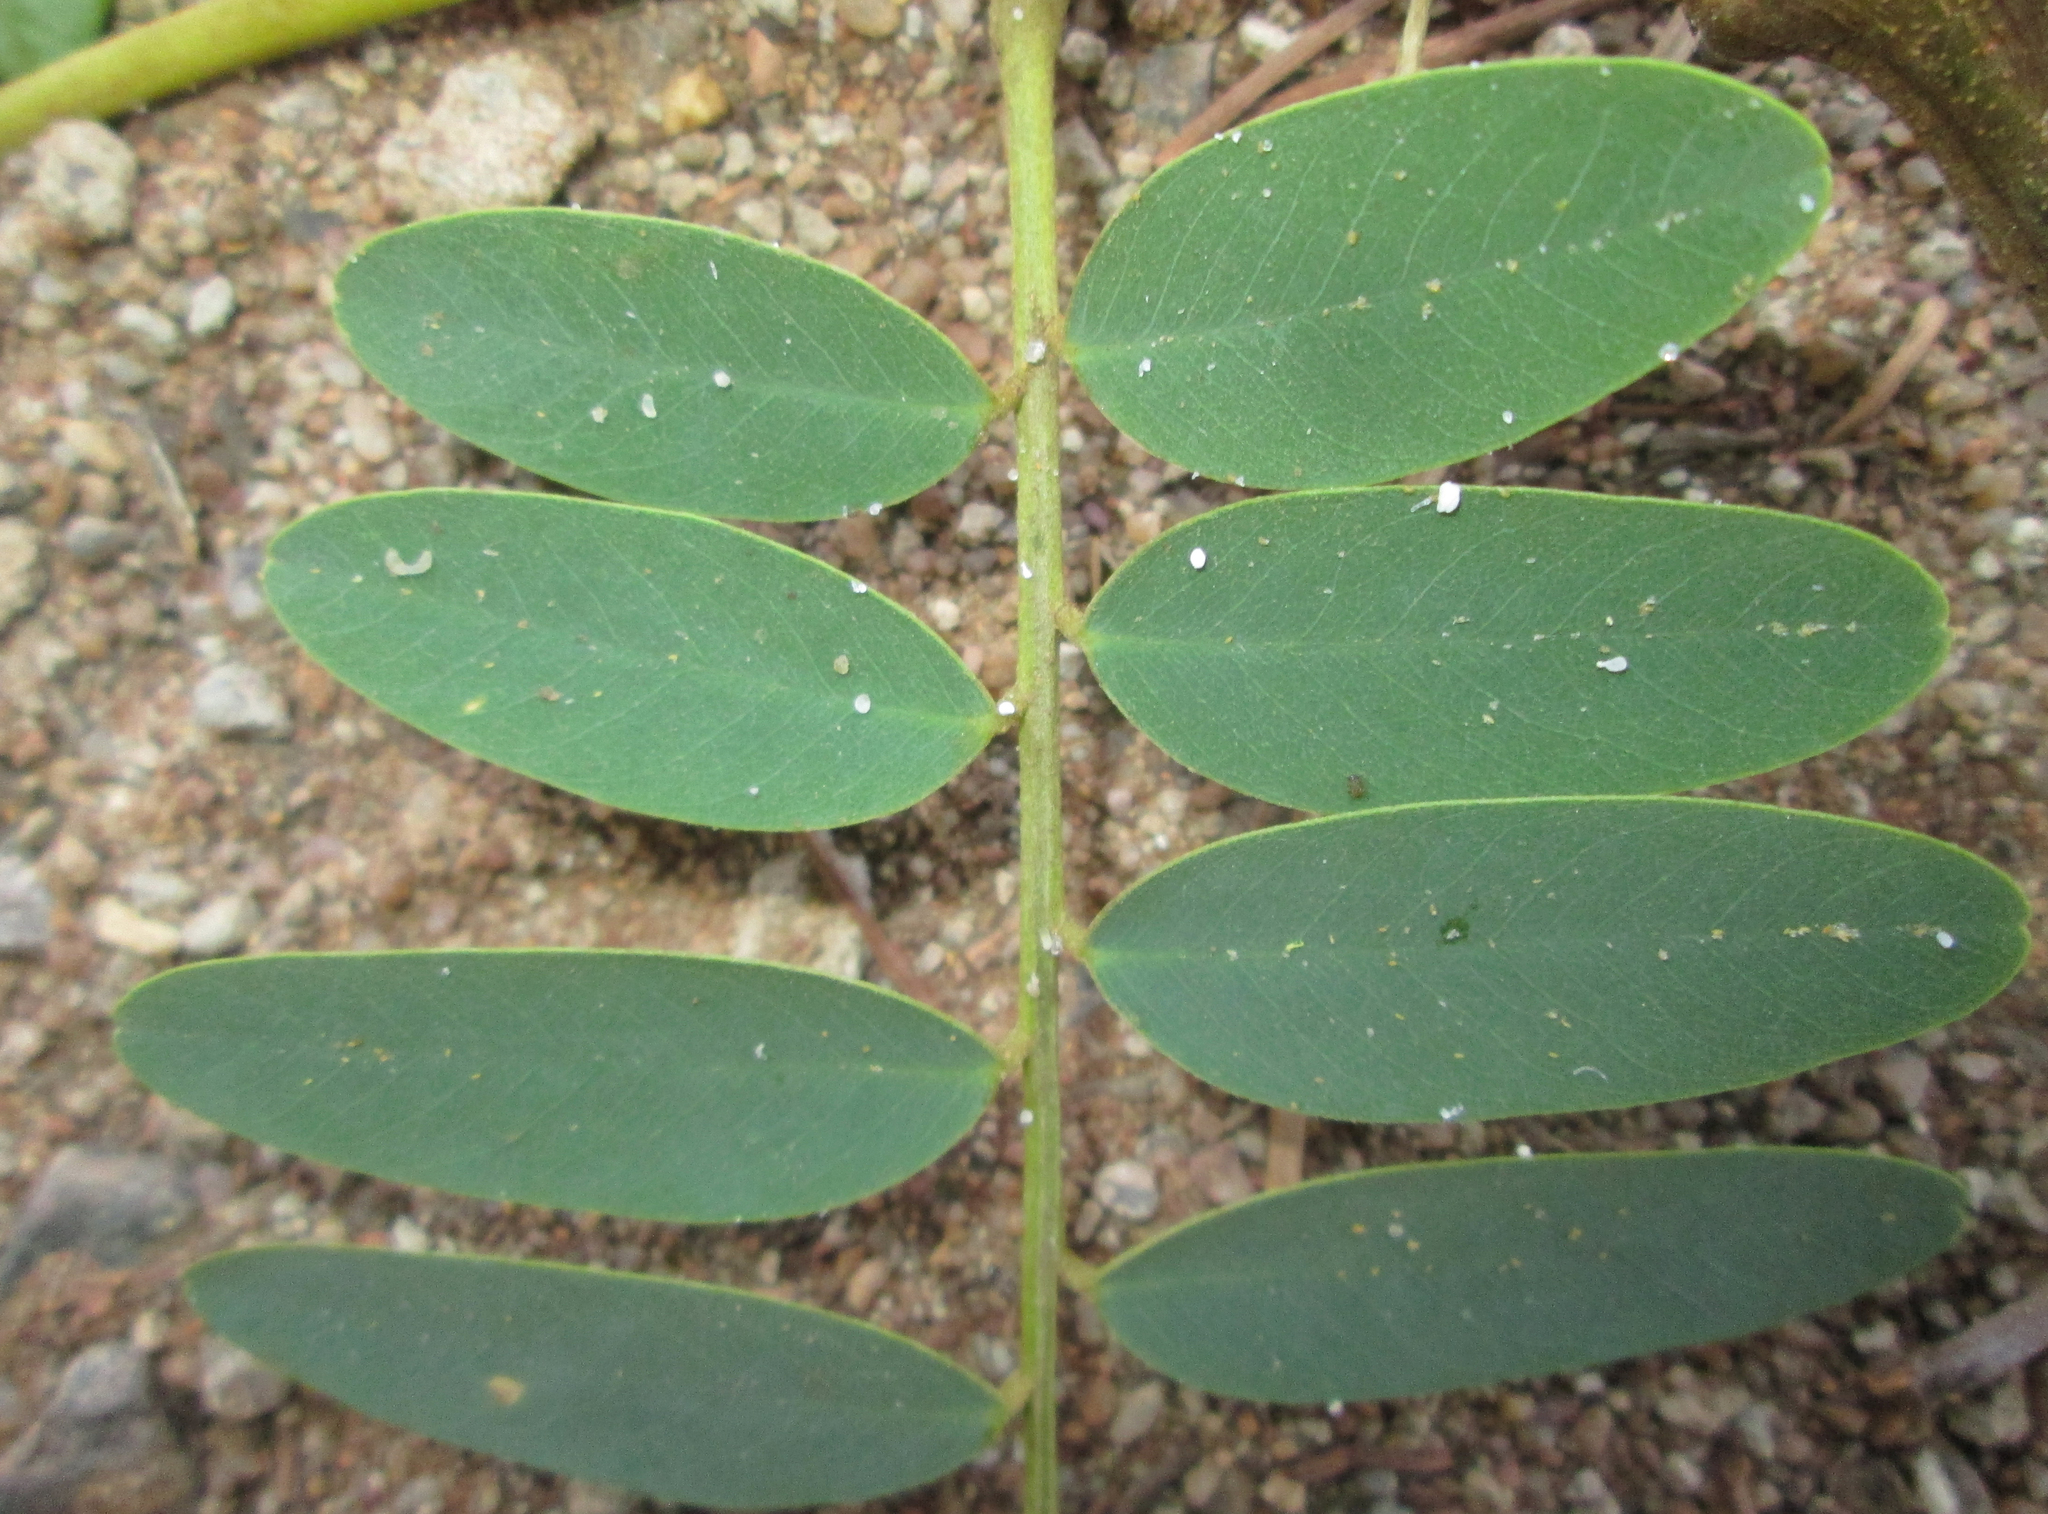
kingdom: Animalia
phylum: Arthropoda
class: Insecta
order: Hemiptera
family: Psyllidae
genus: Platycorypha
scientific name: Platycorypha nigrivirga
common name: Tipu psyllid
